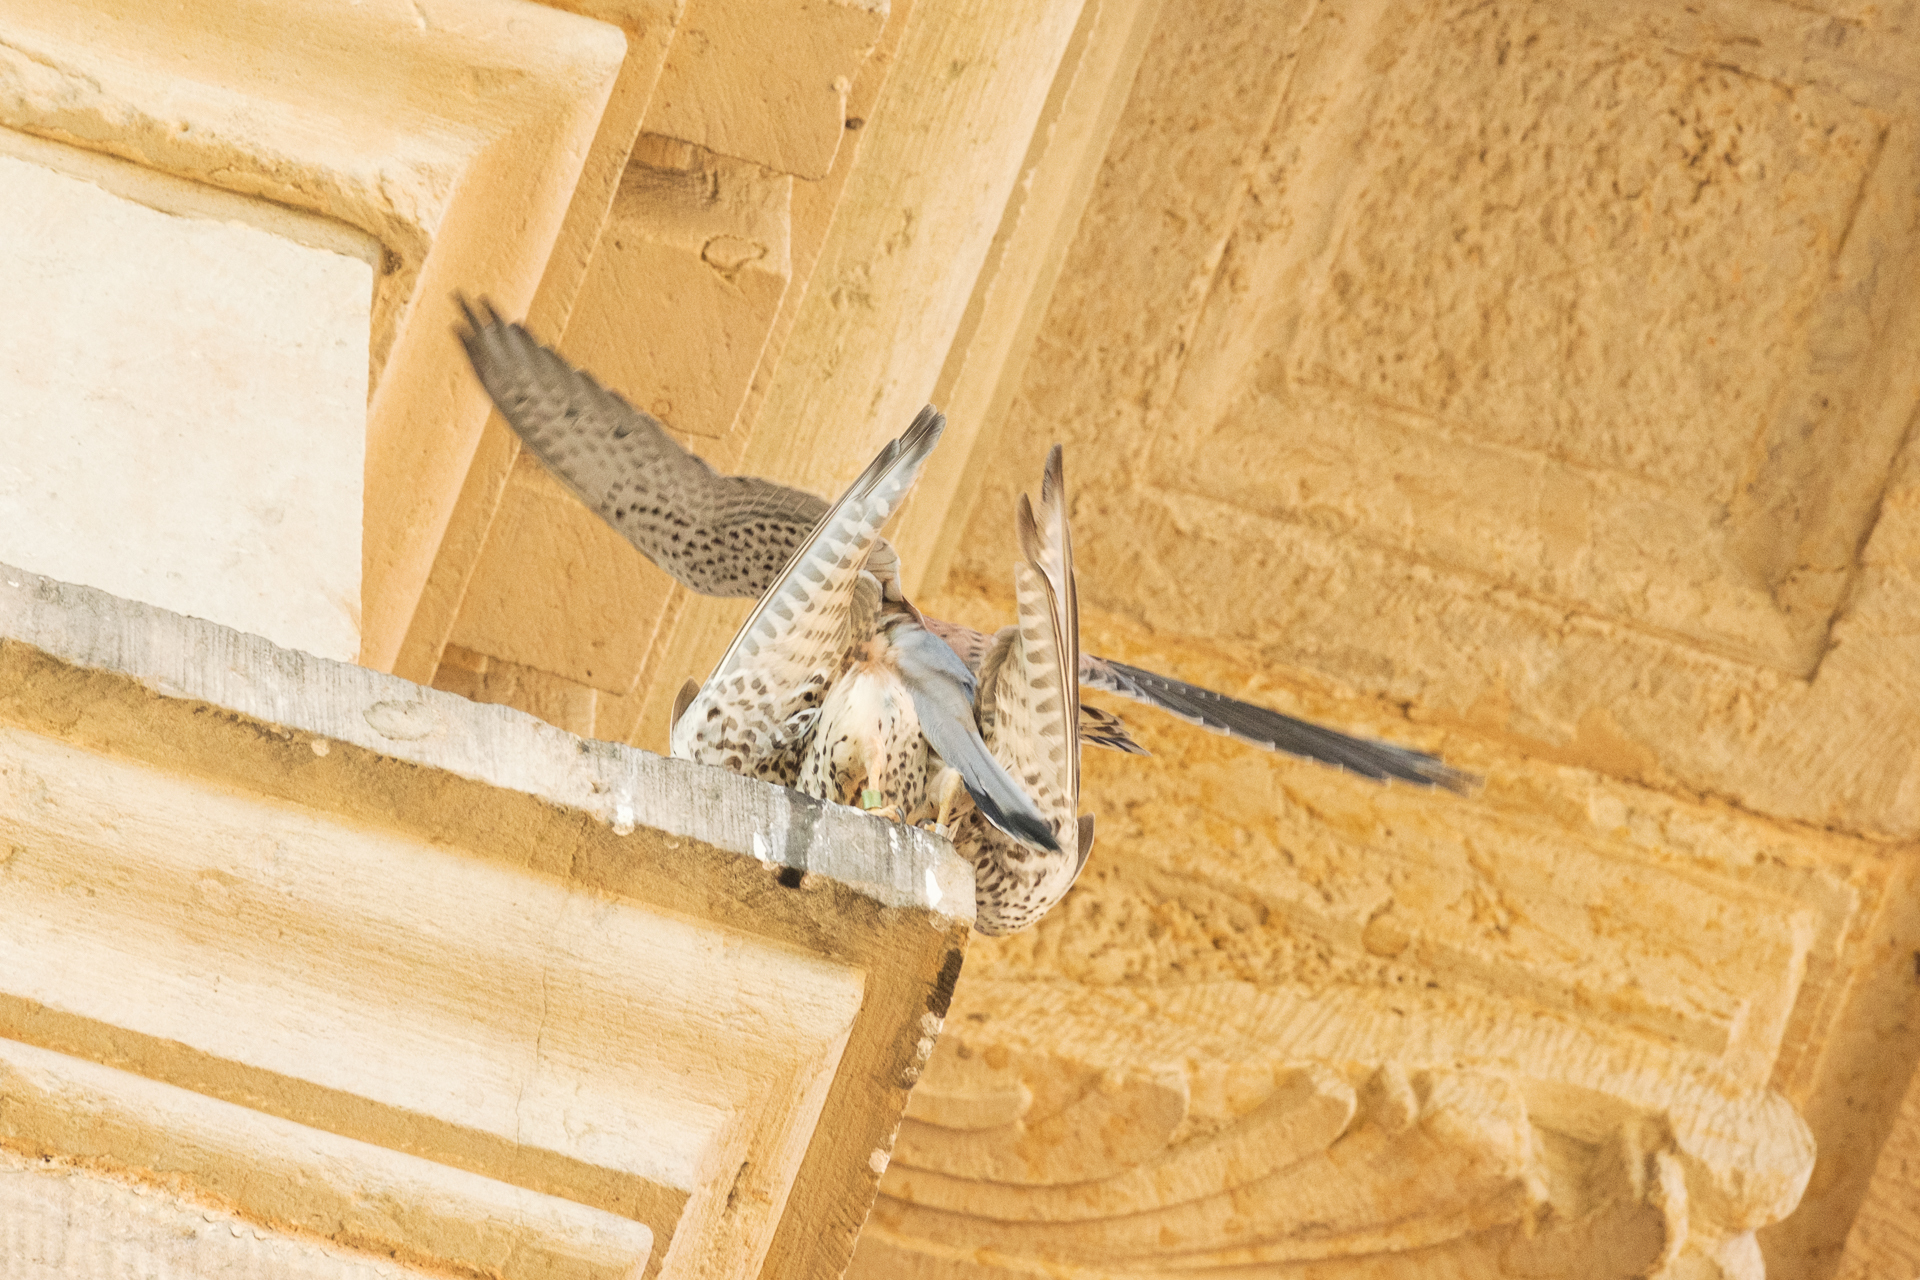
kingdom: Animalia
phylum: Chordata
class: Aves
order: Falconiformes
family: Falconidae
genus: Falco
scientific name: Falco tinnunculus
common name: Common kestrel
